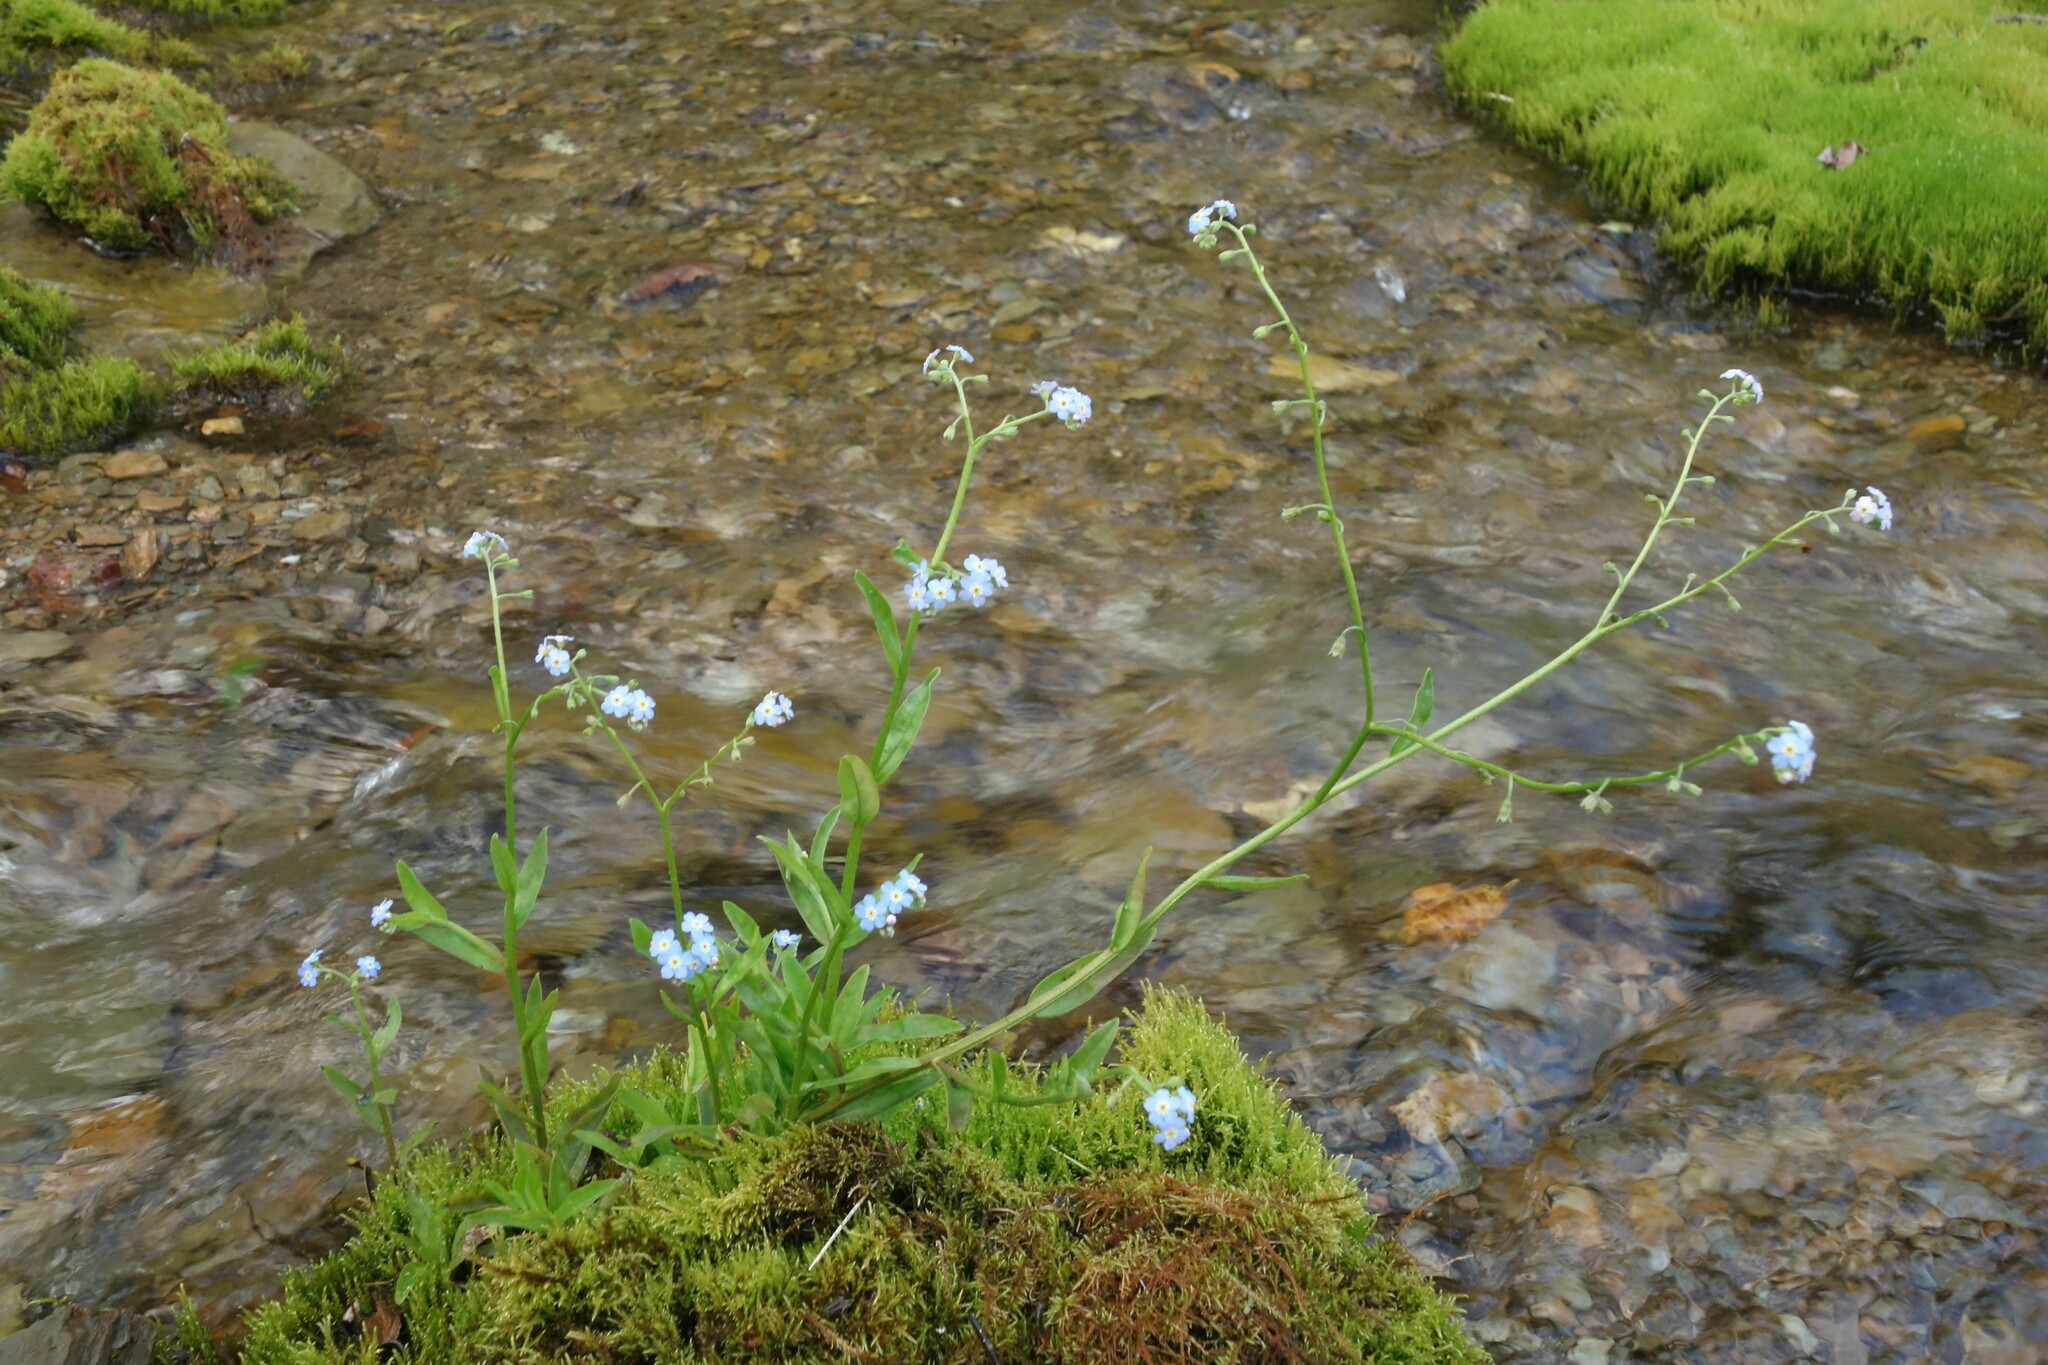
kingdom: Plantae
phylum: Tracheophyta
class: Magnoliopsida
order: Boraginales
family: Boraginaceae
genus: Myosotis
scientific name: Myosotis scorpioides
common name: Water forget-me-not
